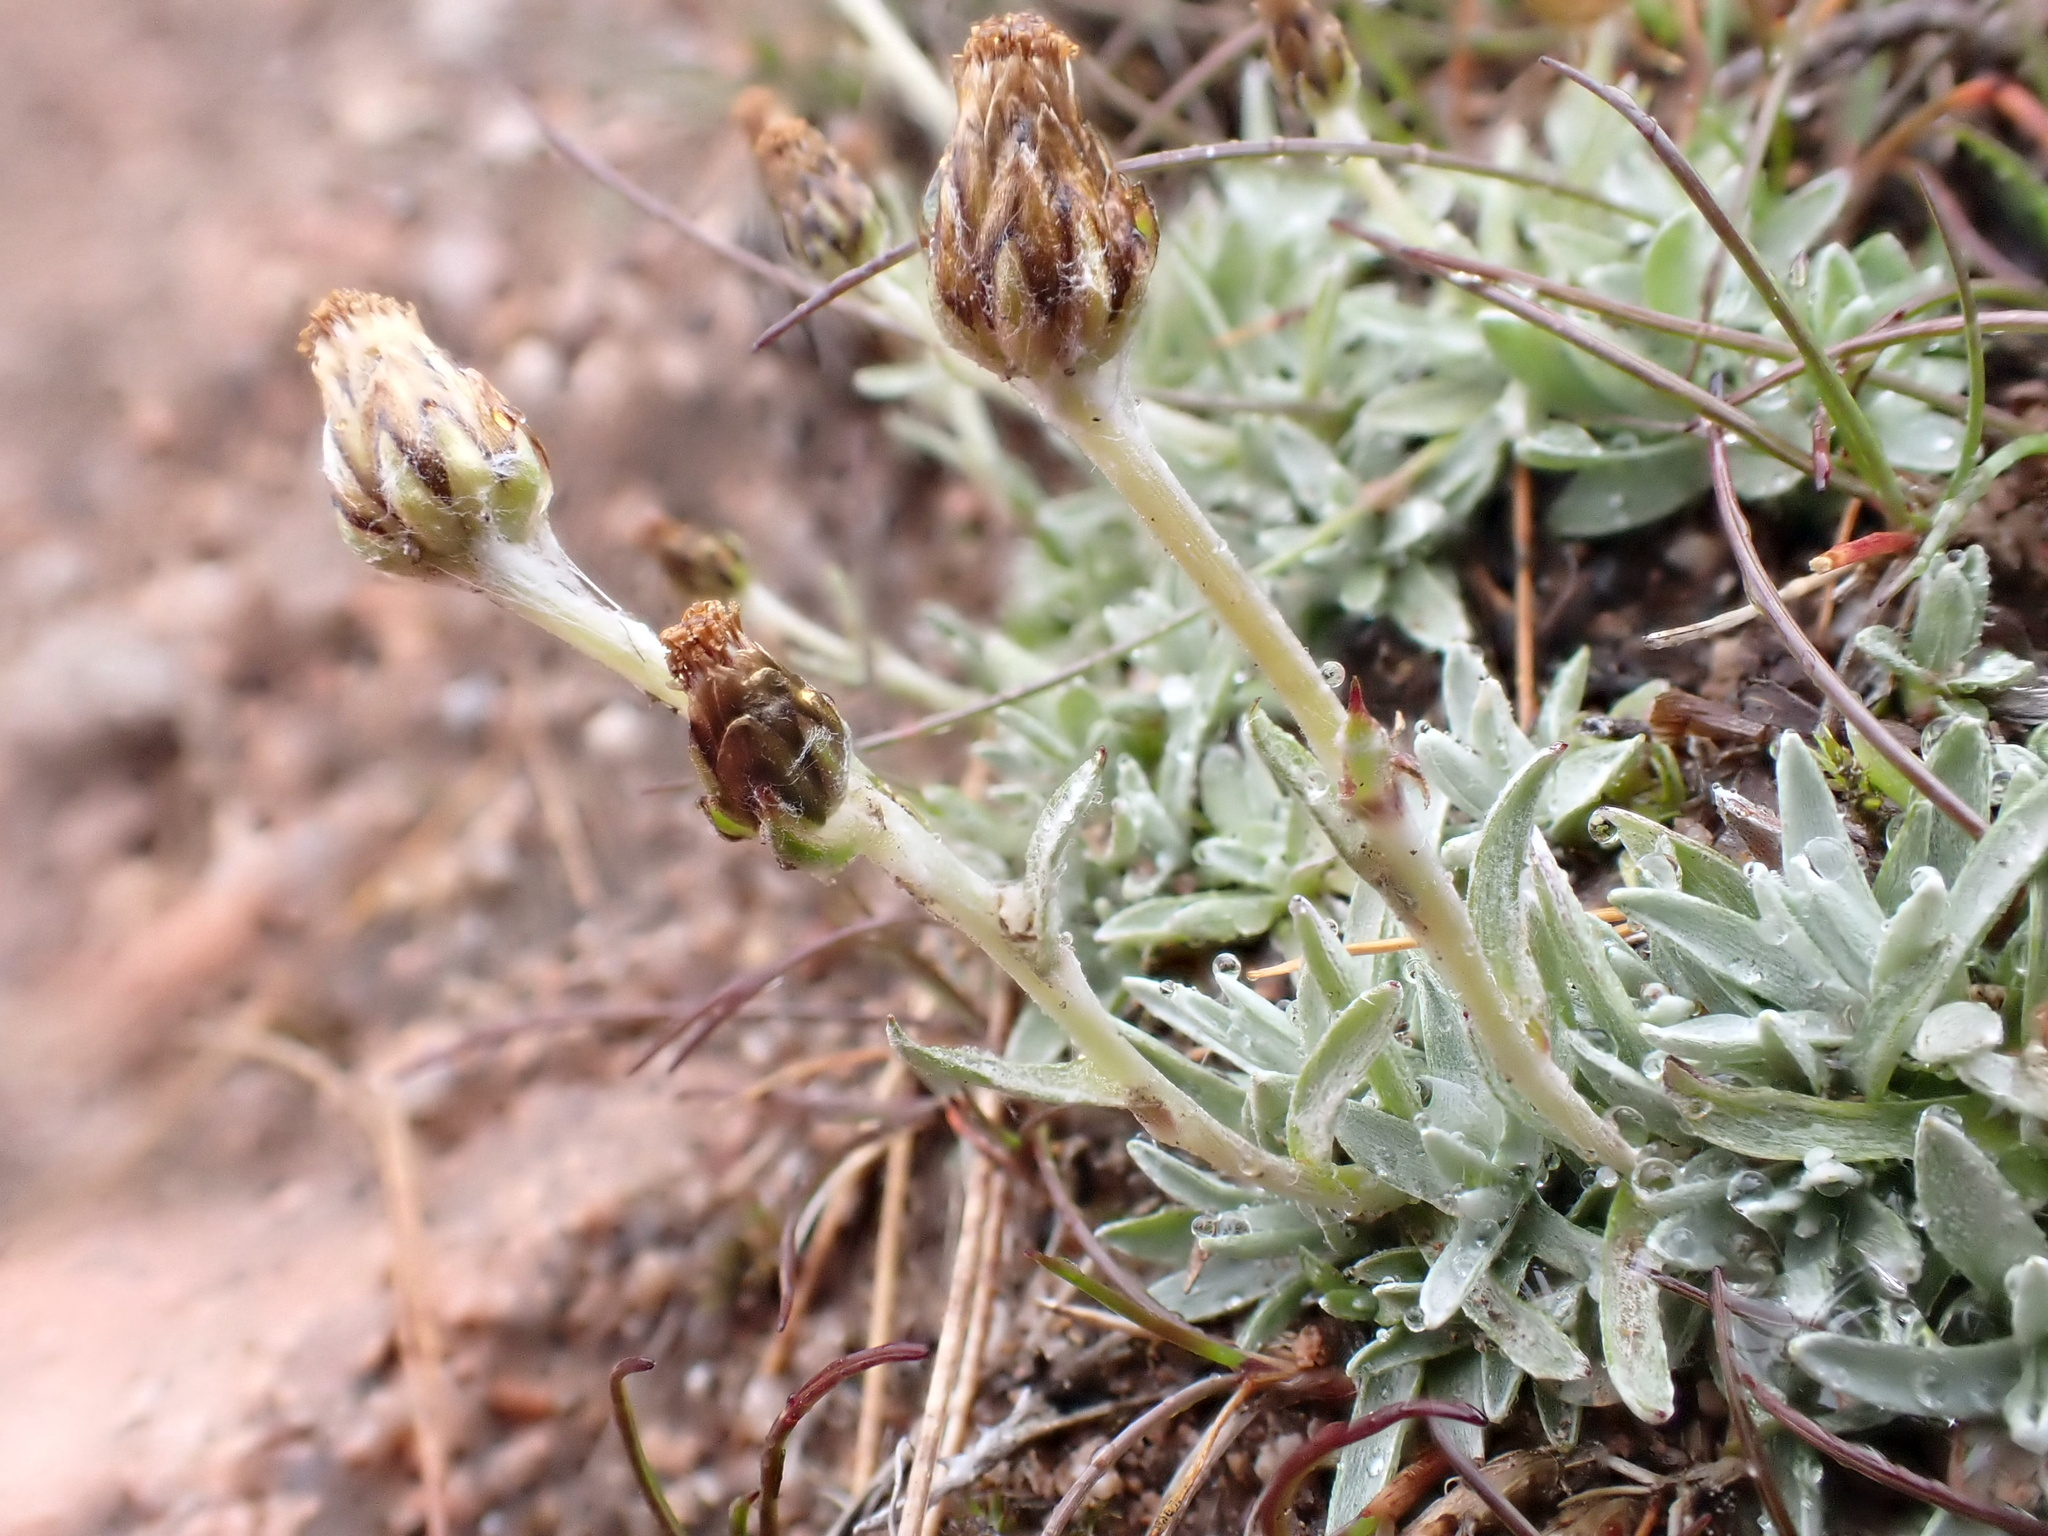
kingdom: Plantae
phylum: Tracheophyta
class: Magnoliopsida
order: Asterales
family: Asteraceae
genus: Omalotheca
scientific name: Omalotheca supina
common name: Alpine arctic-cudweed
